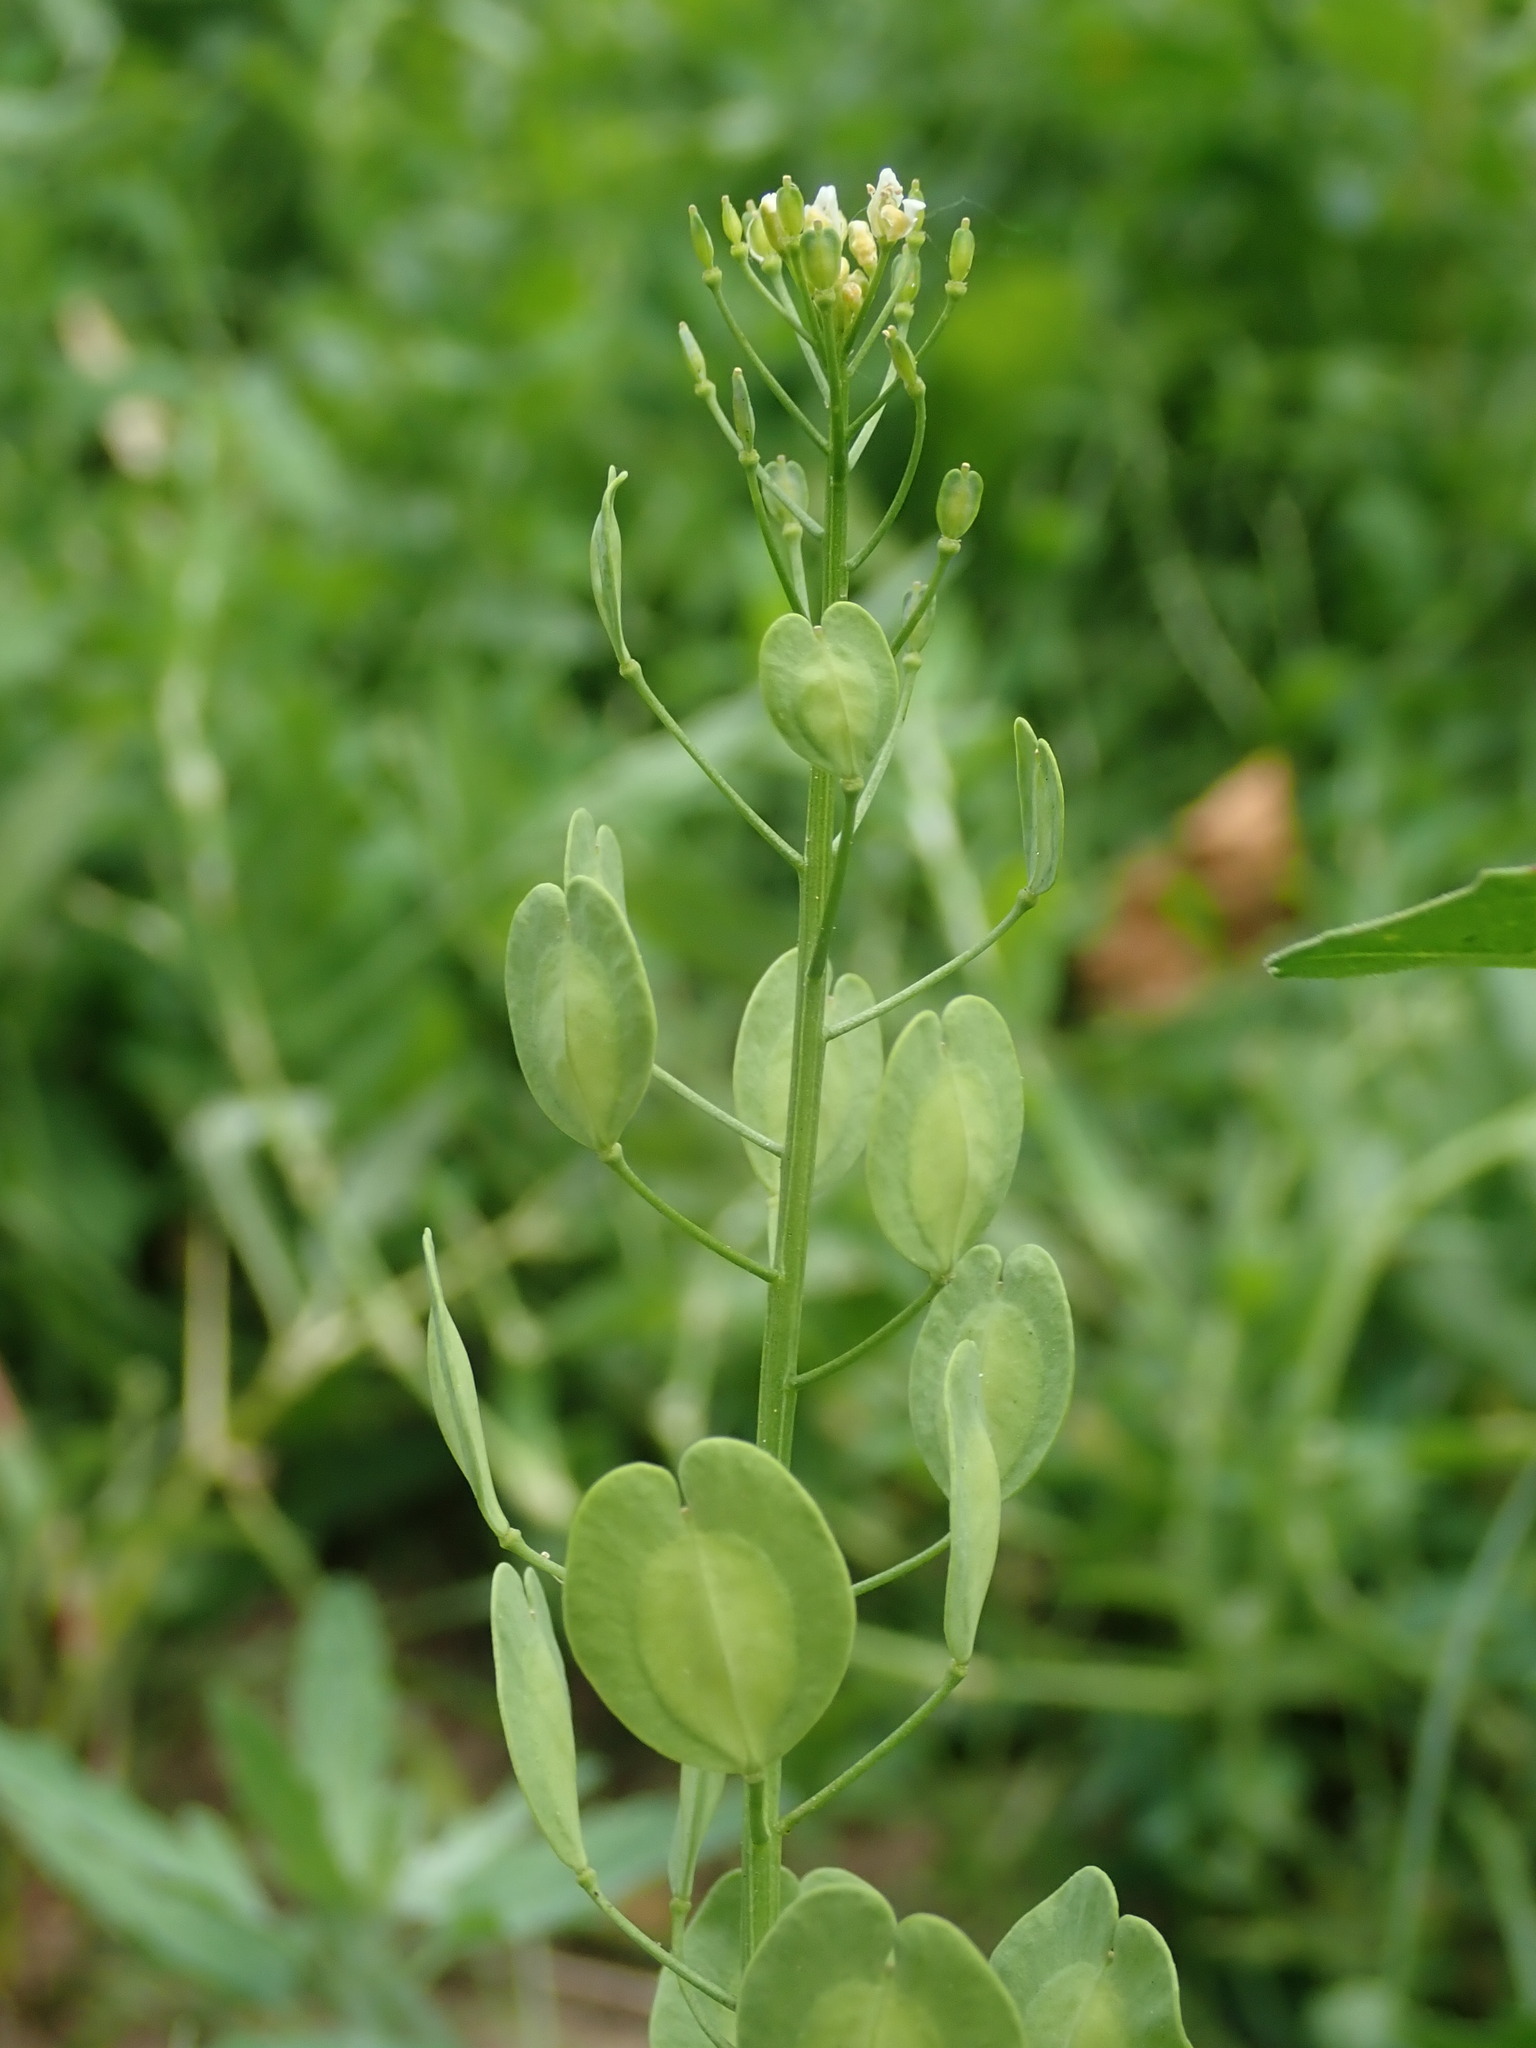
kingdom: Plantae
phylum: Tracheophyta
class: Magnoliopsida
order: Brassicales
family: Brassicaceae
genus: Thlaspi
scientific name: Thlaspi arvense
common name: Field pennycress
